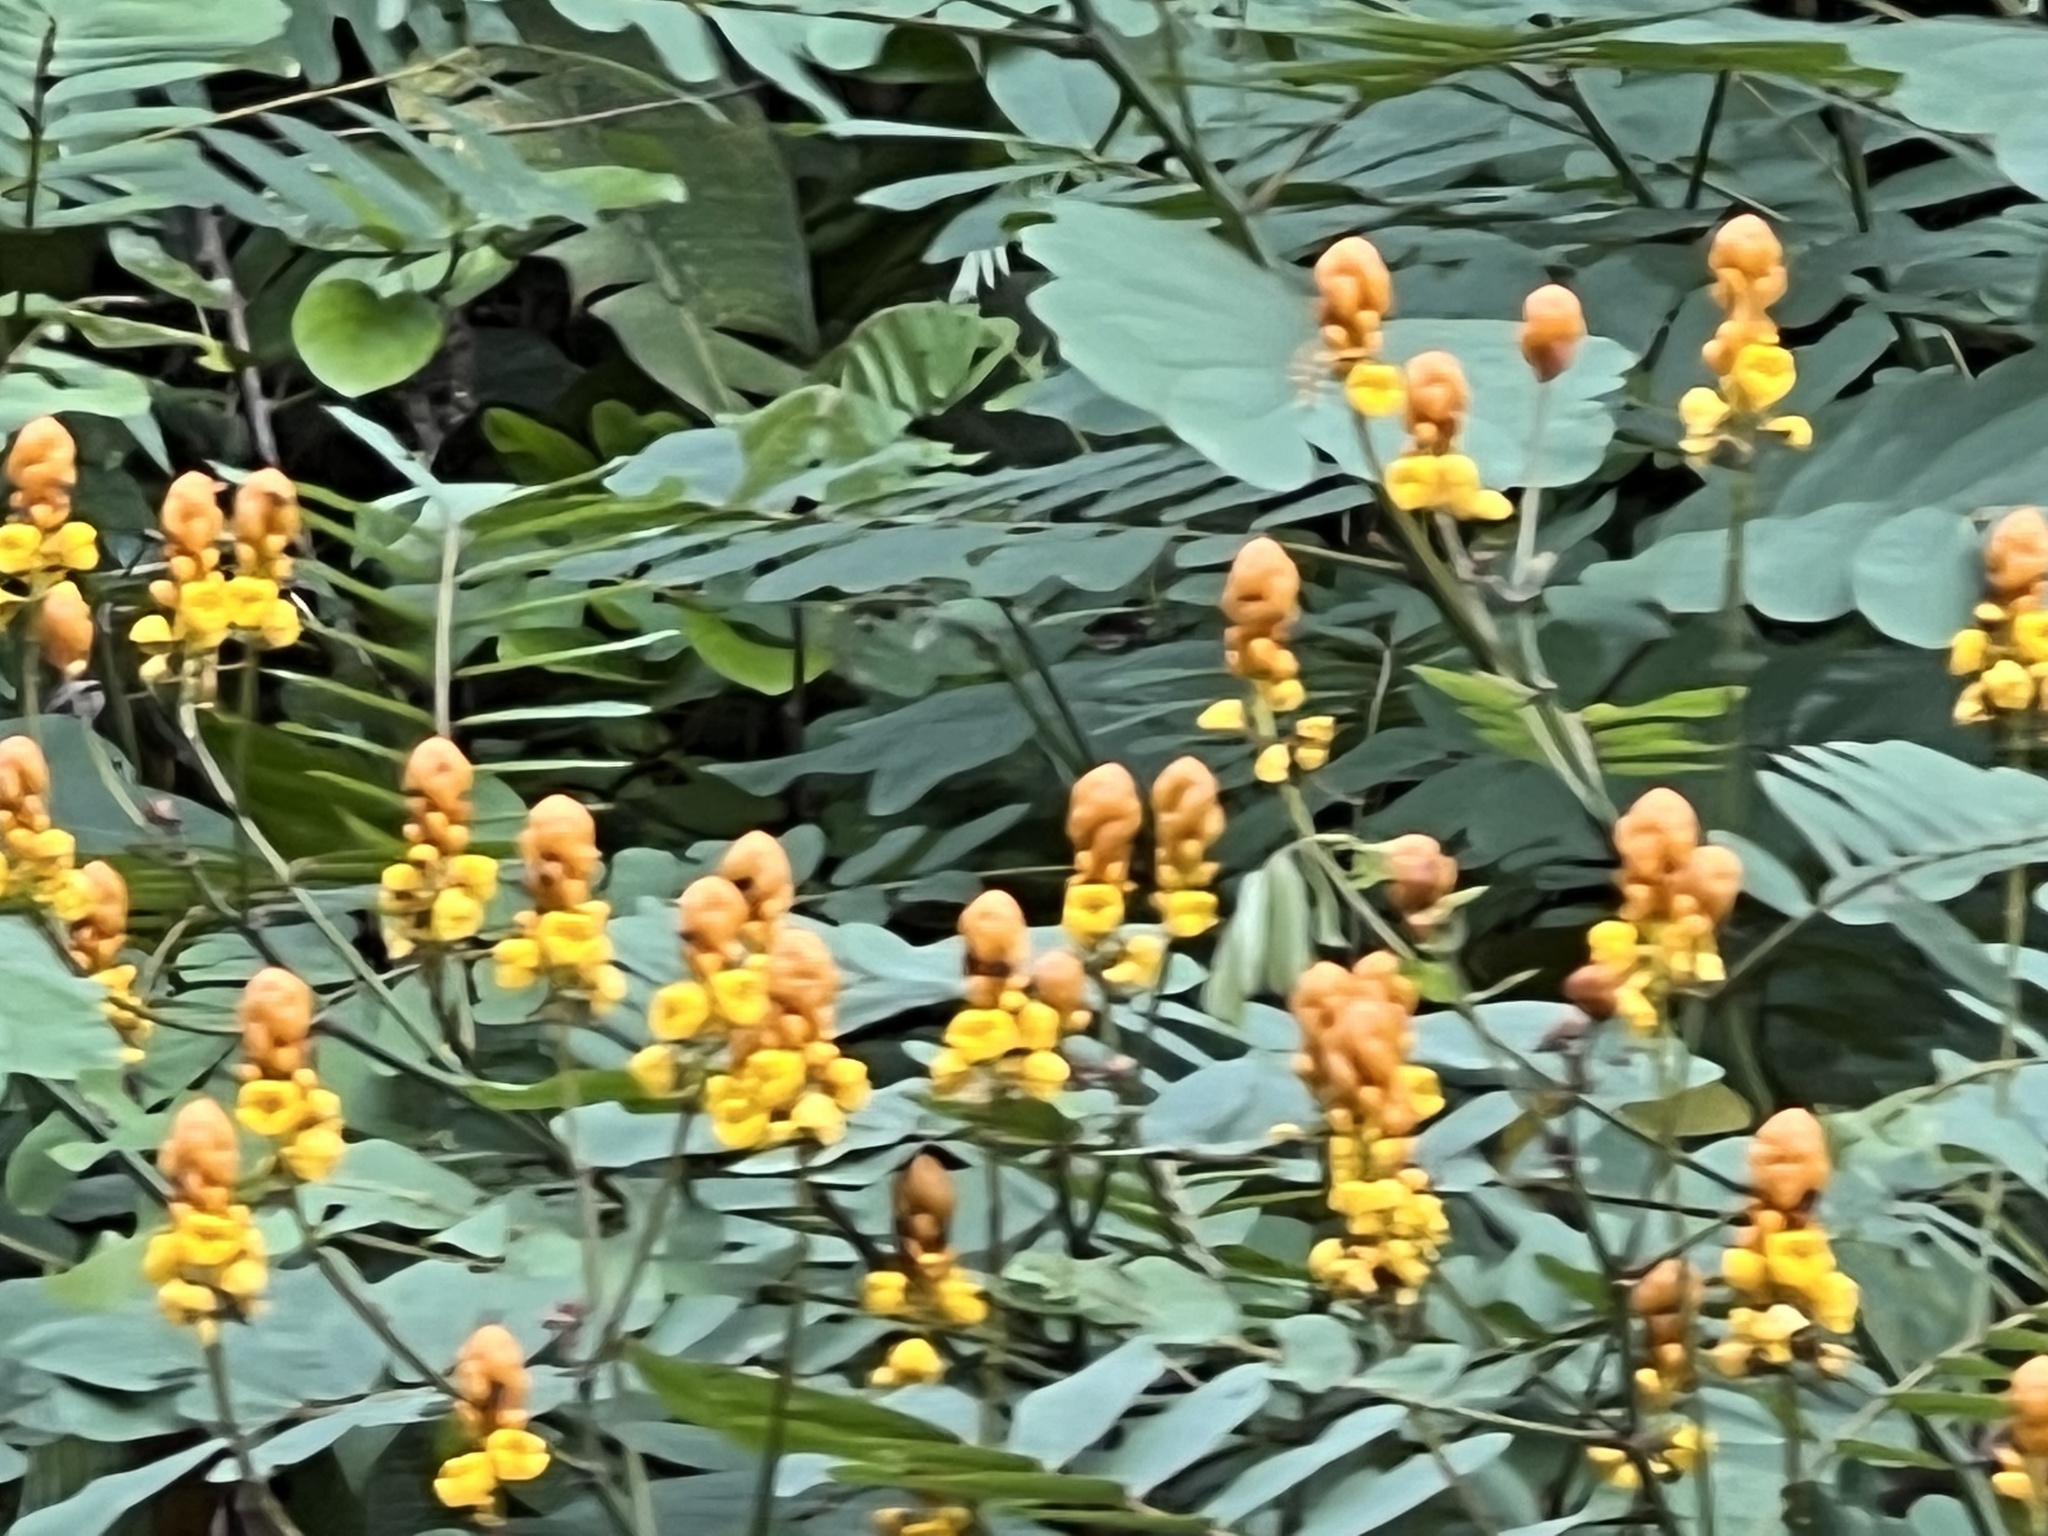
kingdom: Plantae
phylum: Tracheophyta
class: Magnoliopsida
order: Fabales
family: Fabaceae
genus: Senna
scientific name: Senna reticulata
